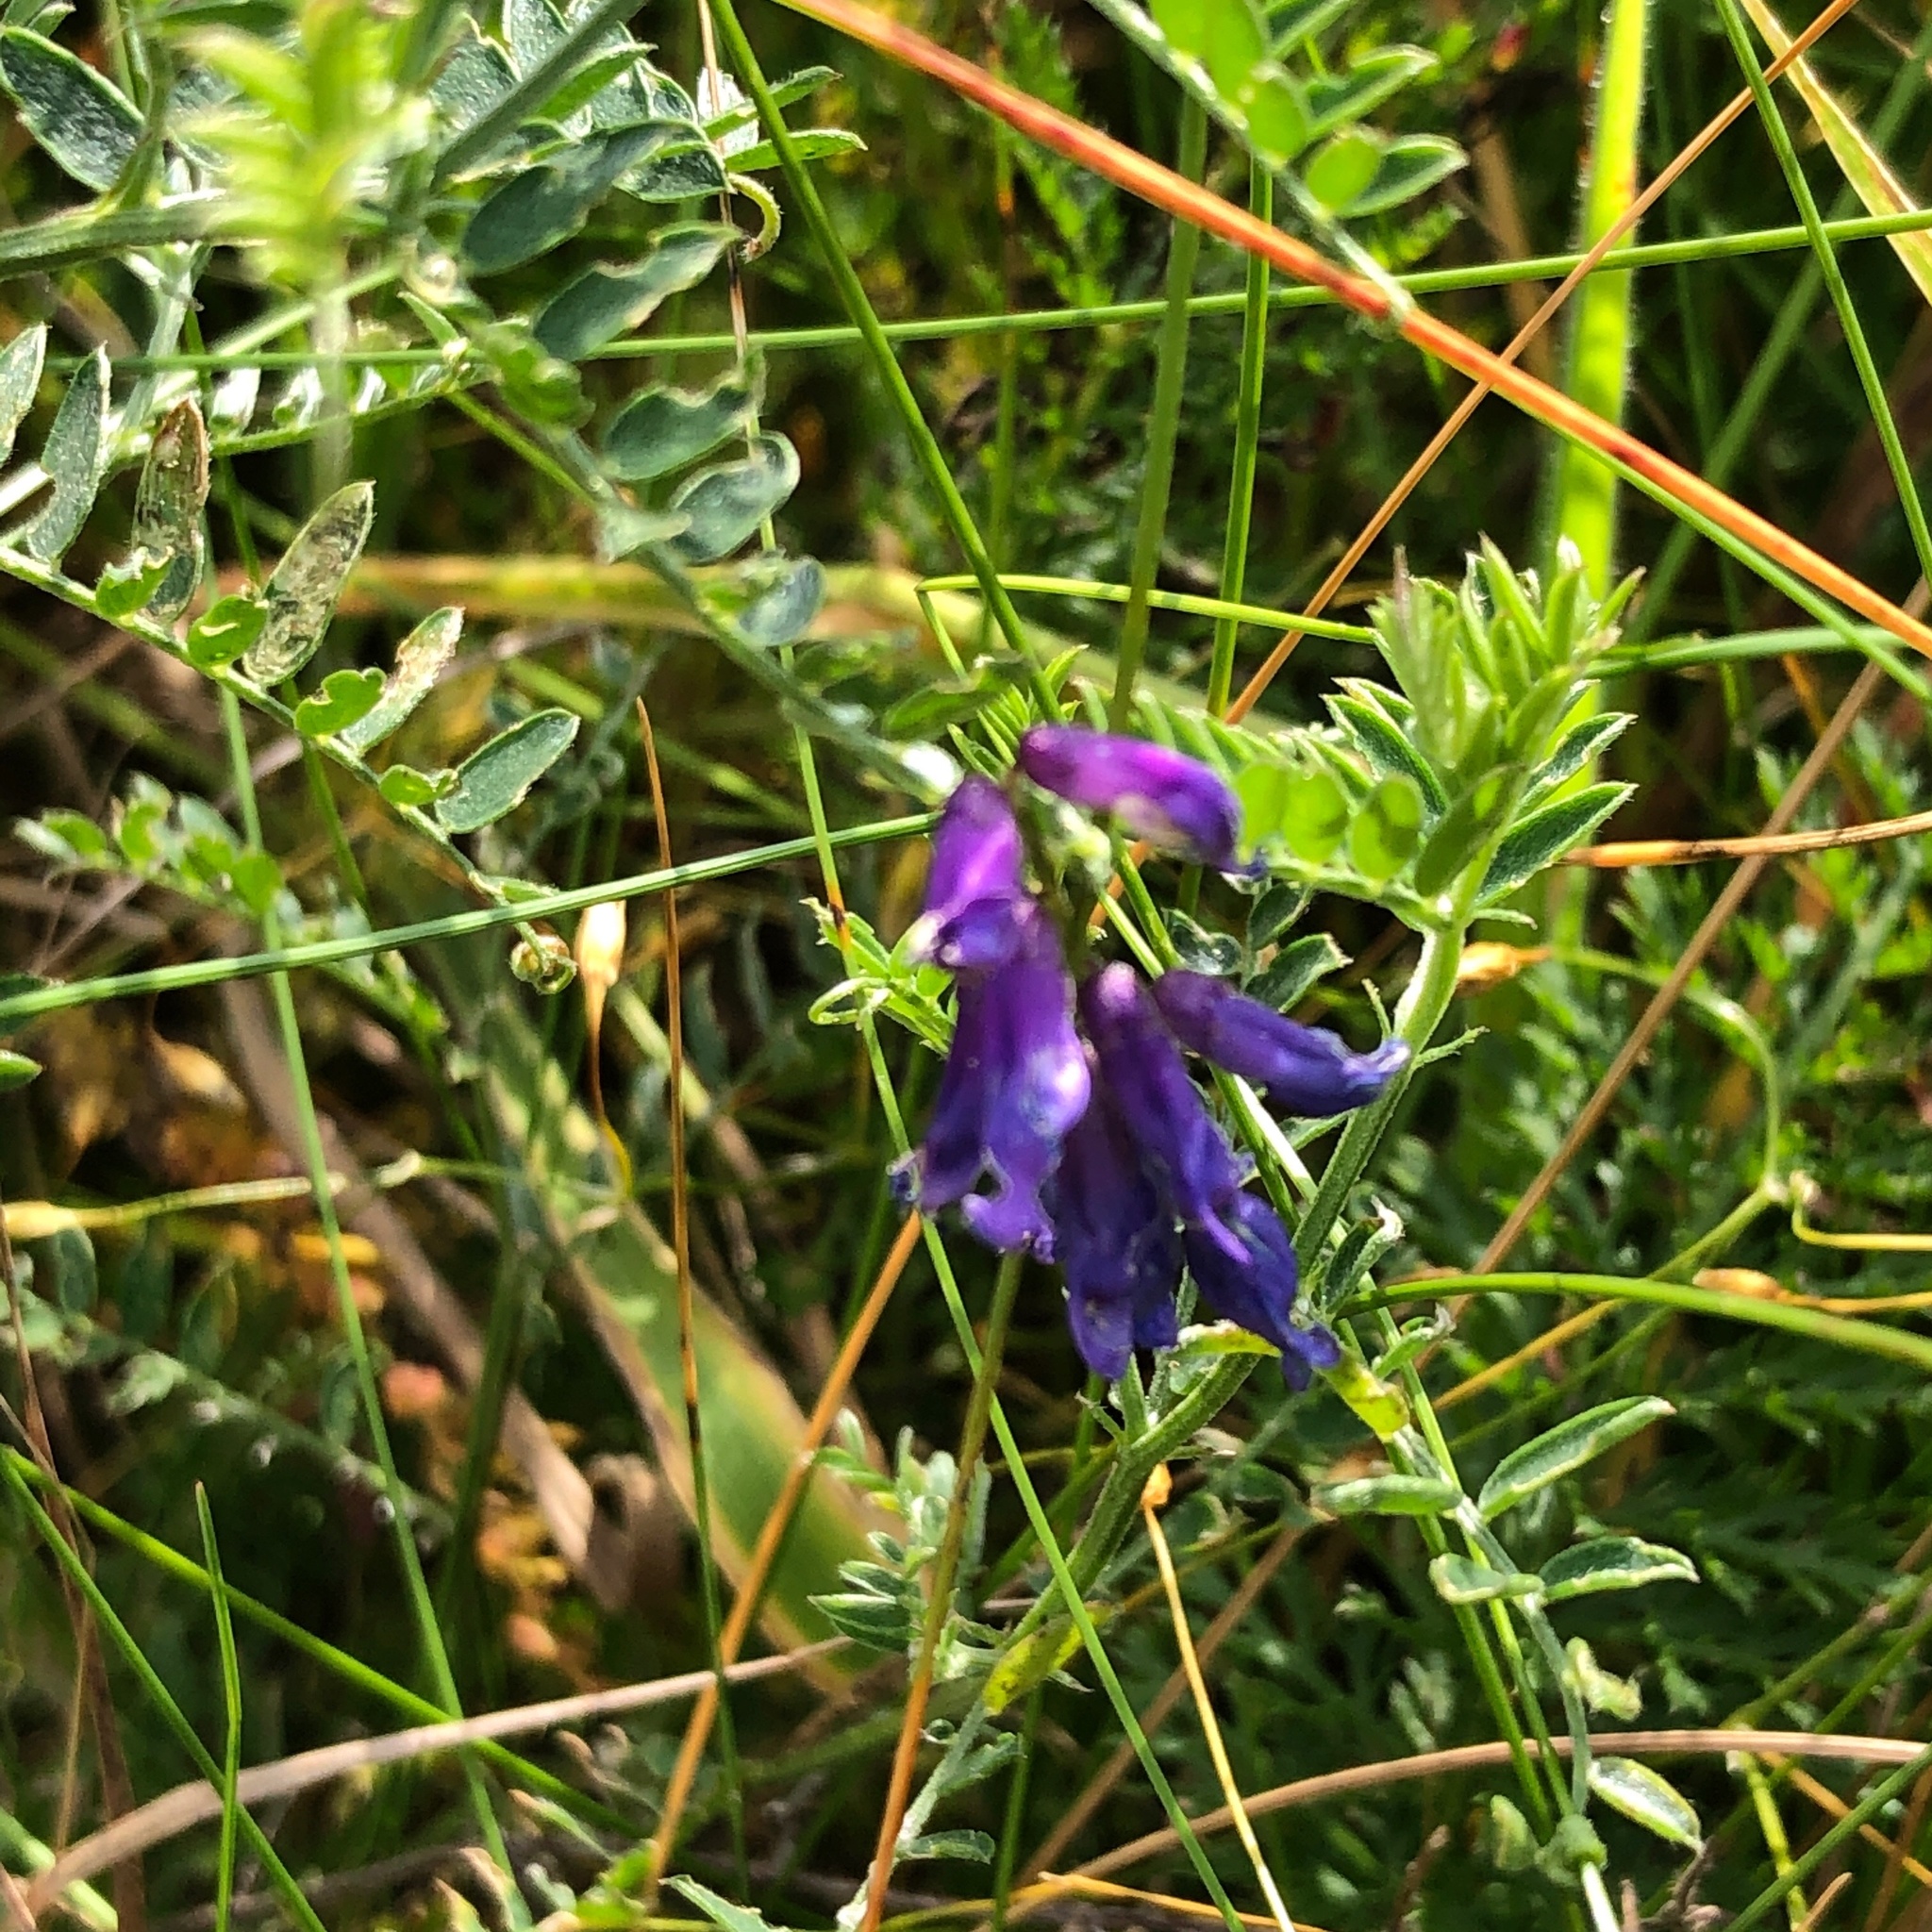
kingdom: Plantae
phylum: Tracheophyta
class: Magnoliopsida
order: Fabales
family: Fabaceae
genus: Vicia
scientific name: Vicia cracca
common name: Bird vetch
